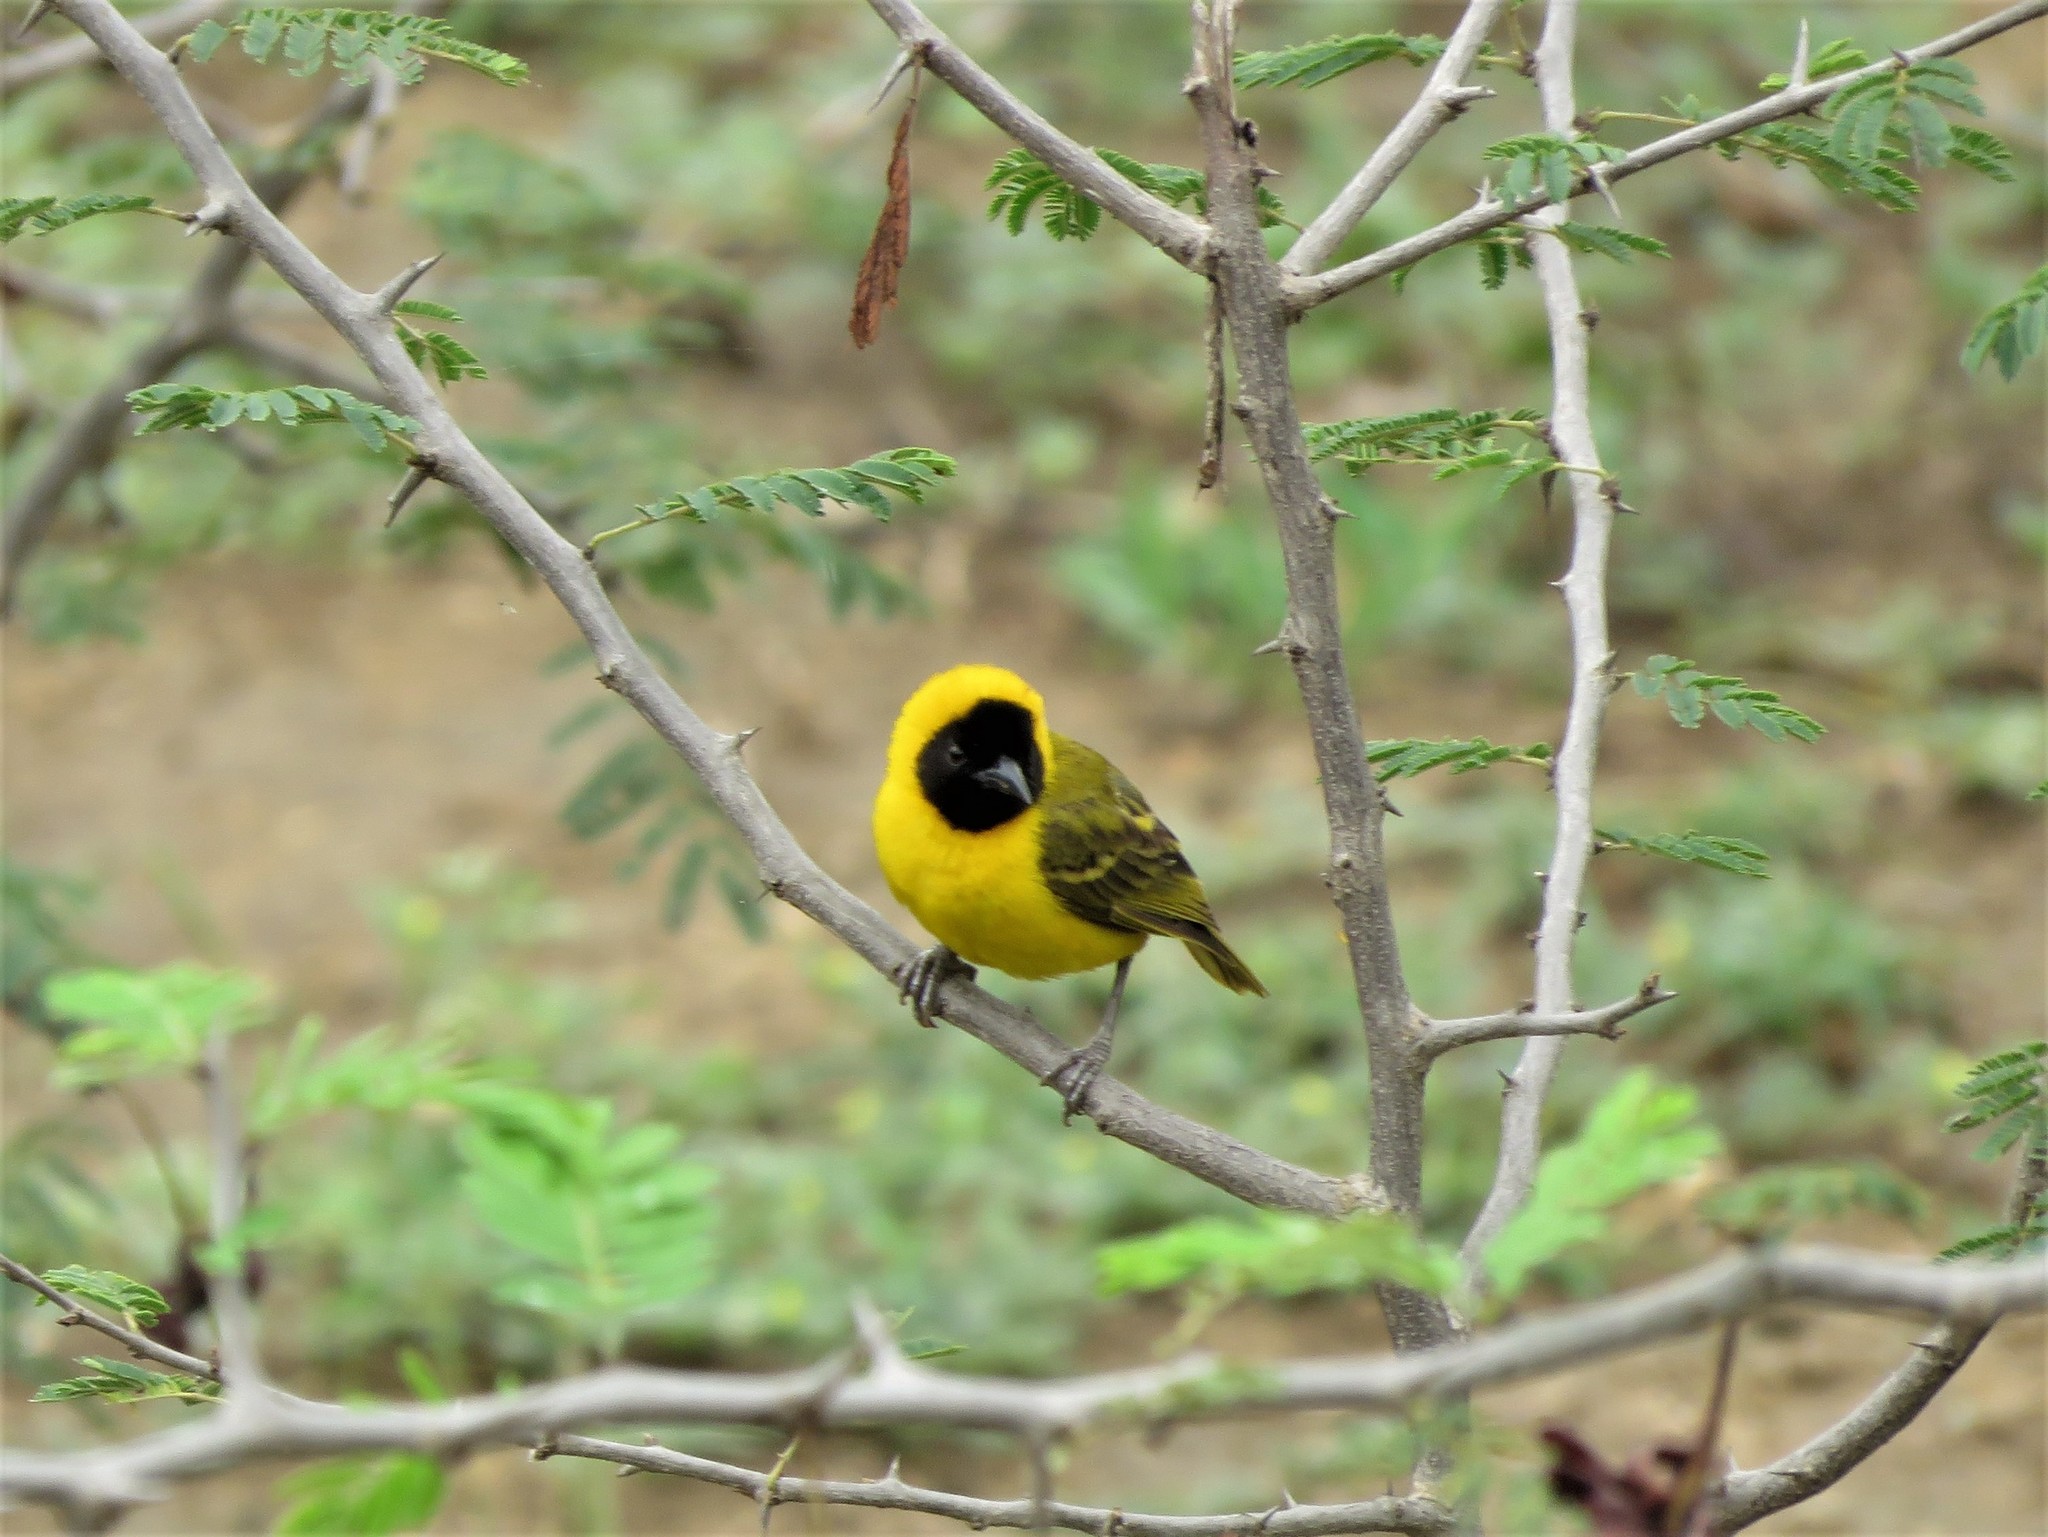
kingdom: Animalia
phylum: Chordata
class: Aves
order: Passeriformes
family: Ploceidae
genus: Ploceus
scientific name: Ploceus pelzelni
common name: Slender-billed weaver
